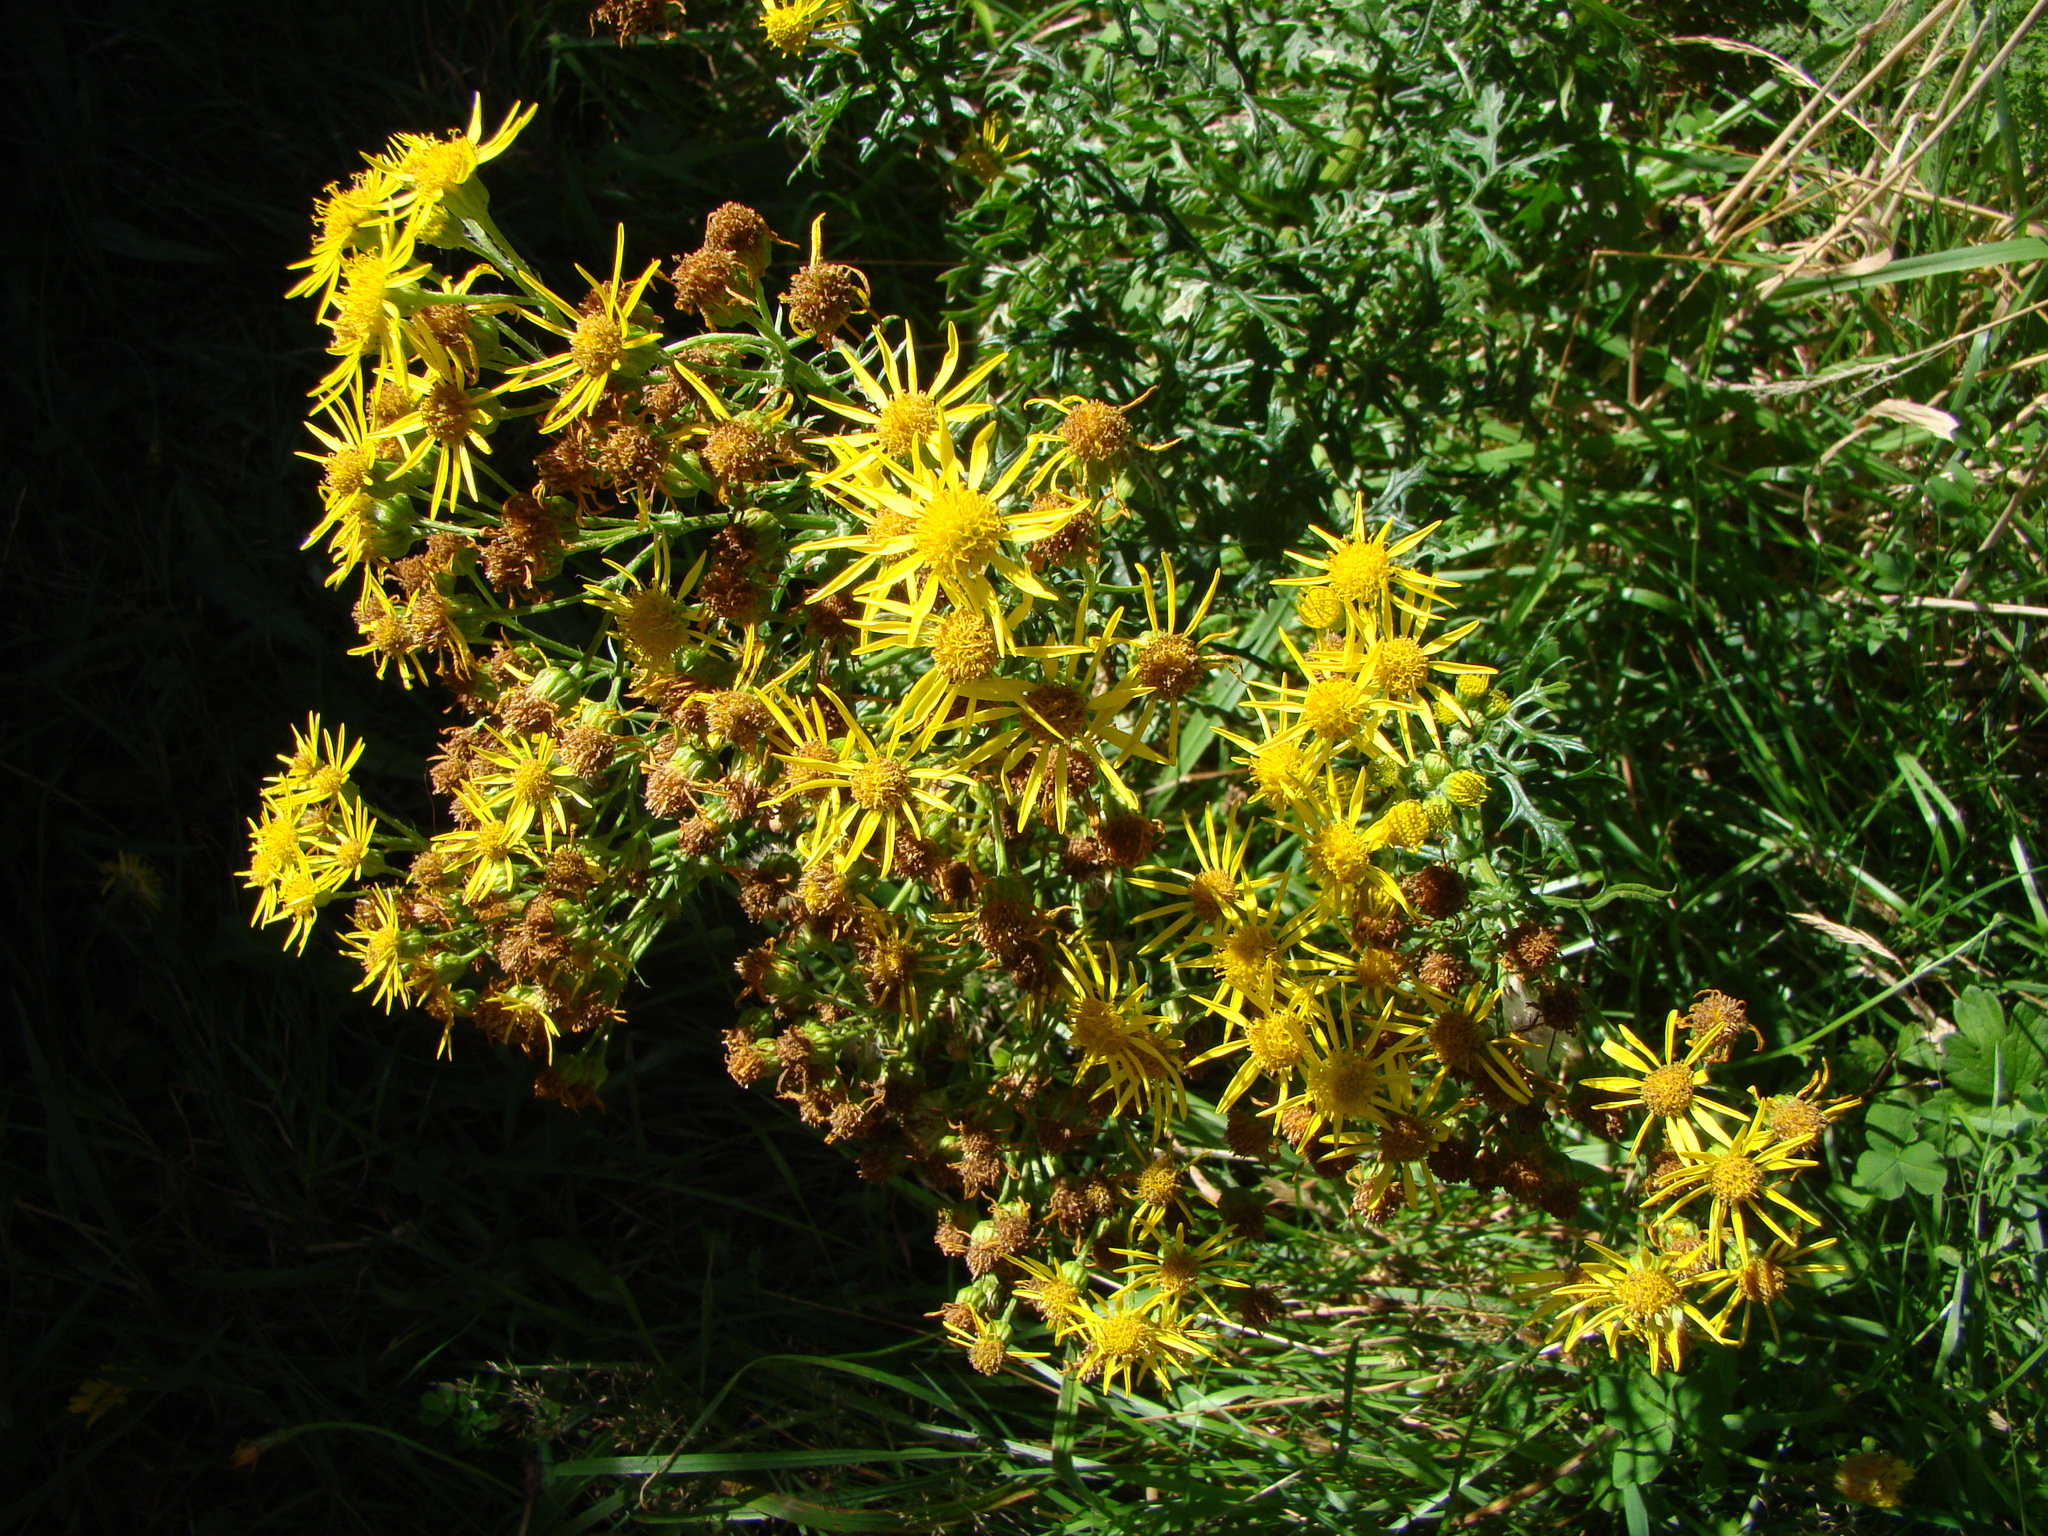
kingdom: Plantae
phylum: Tracheophyta
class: Magnoliopsida
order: Asterales
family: Asteraceae
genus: Jacobaea
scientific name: Jacobaea vulgaris
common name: Stinking willie
